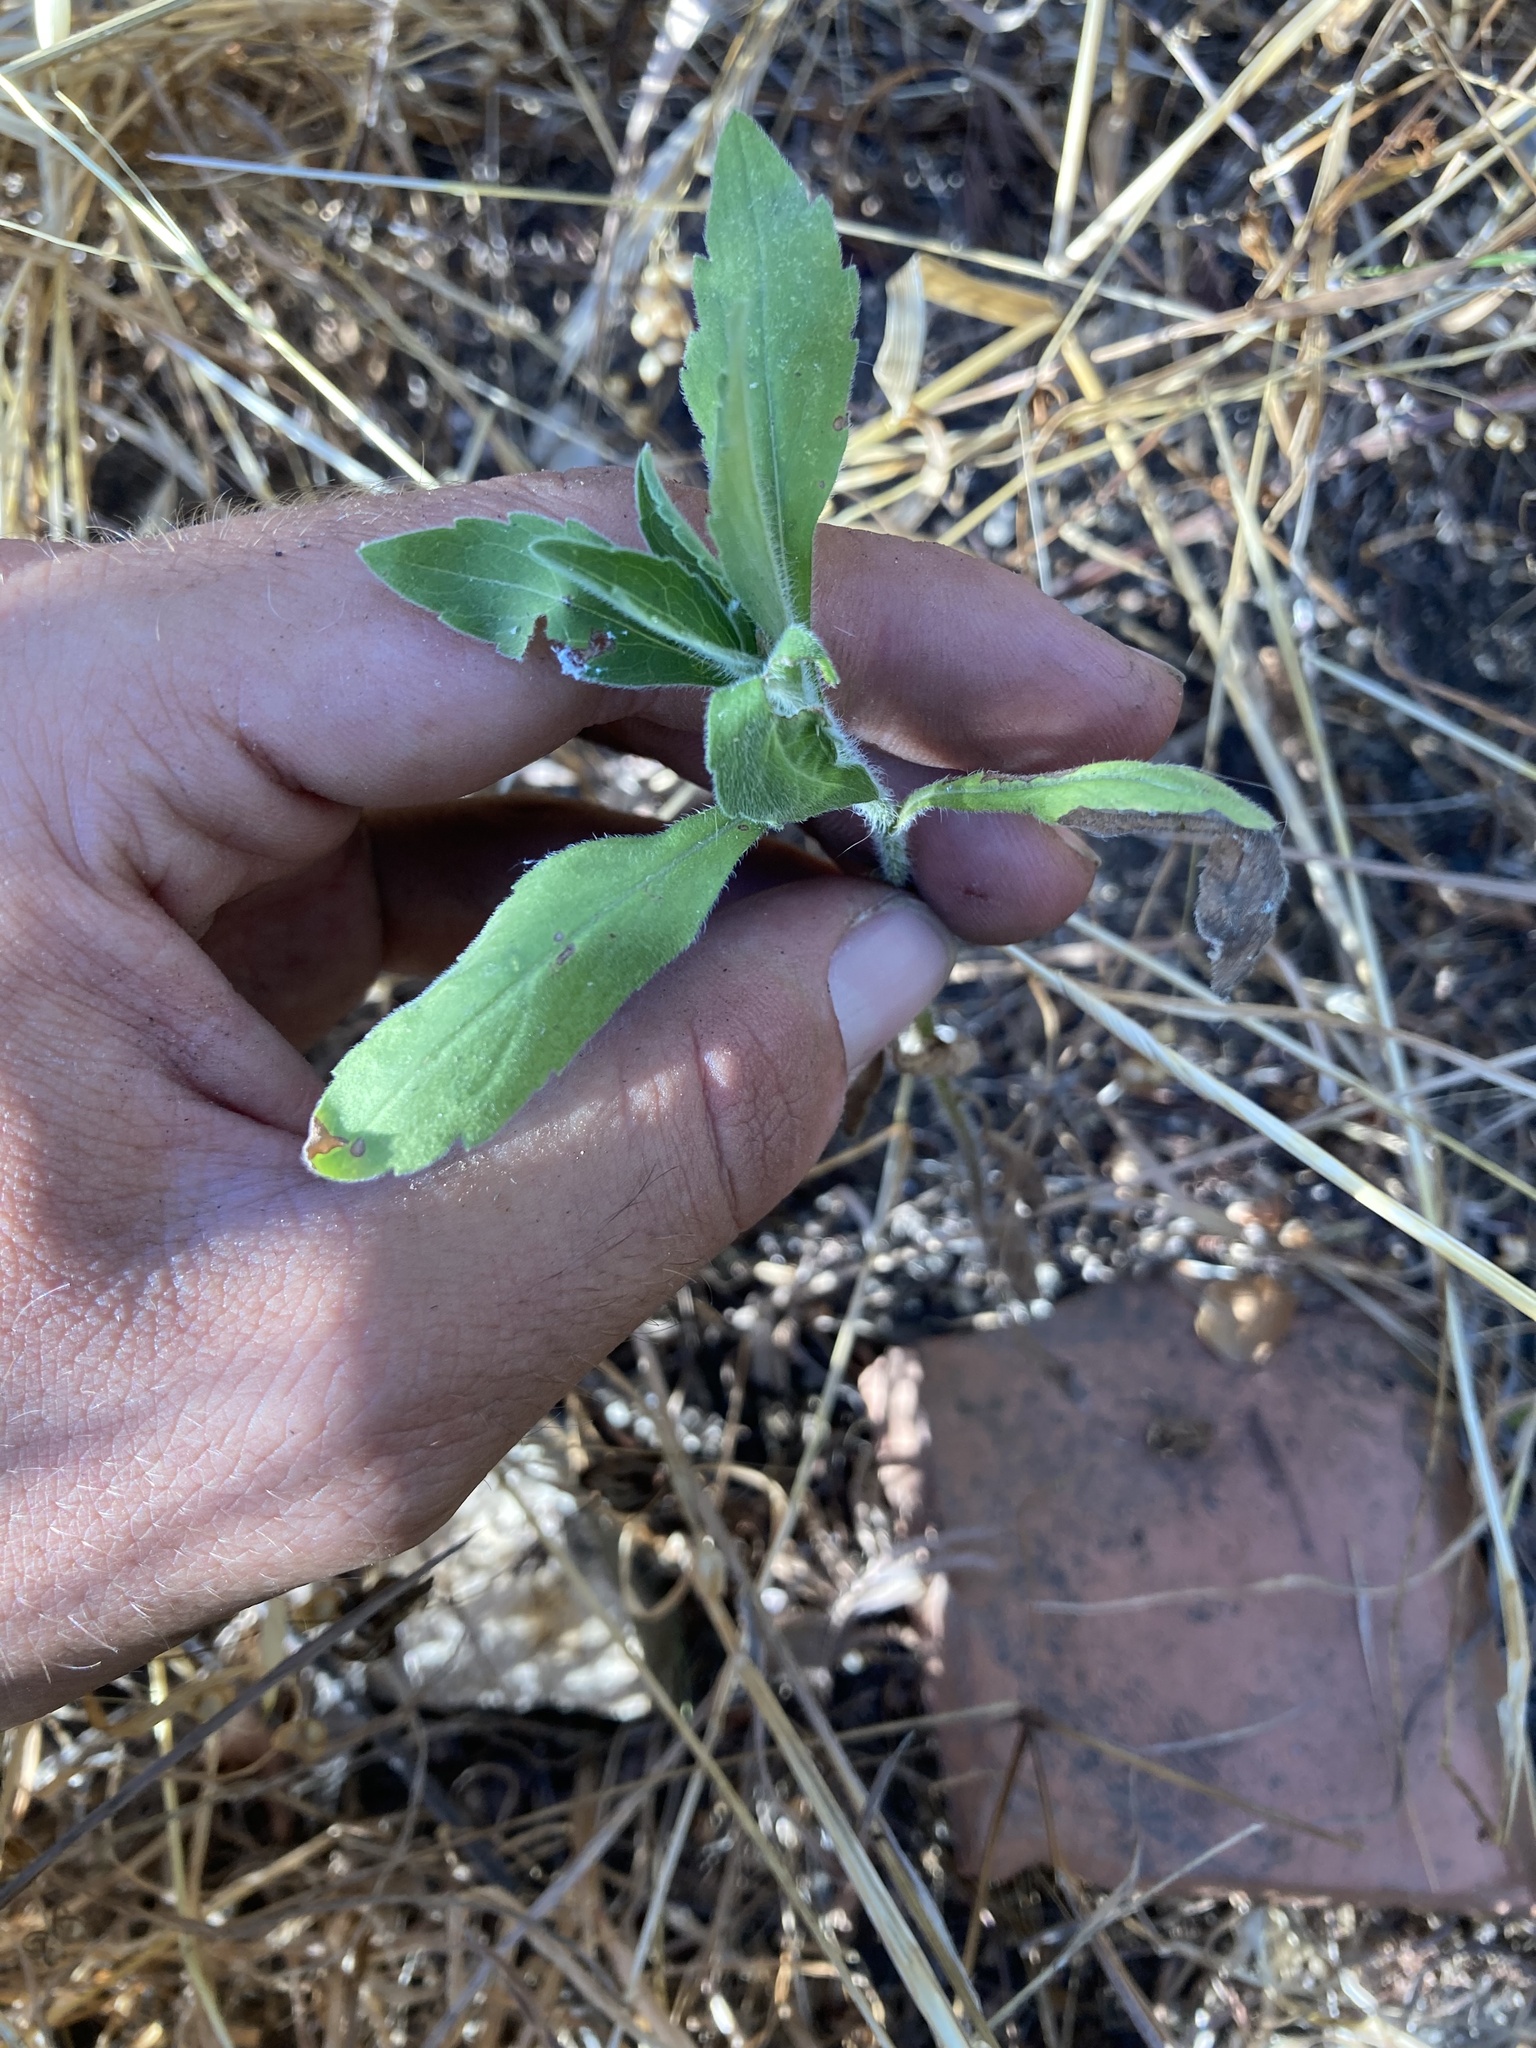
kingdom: Plantae
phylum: Tracheophyta
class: Magnoliopsida
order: Asterales
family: Asteraceae
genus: Erigeron
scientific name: Erigeron sumatrensis
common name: Daisy
